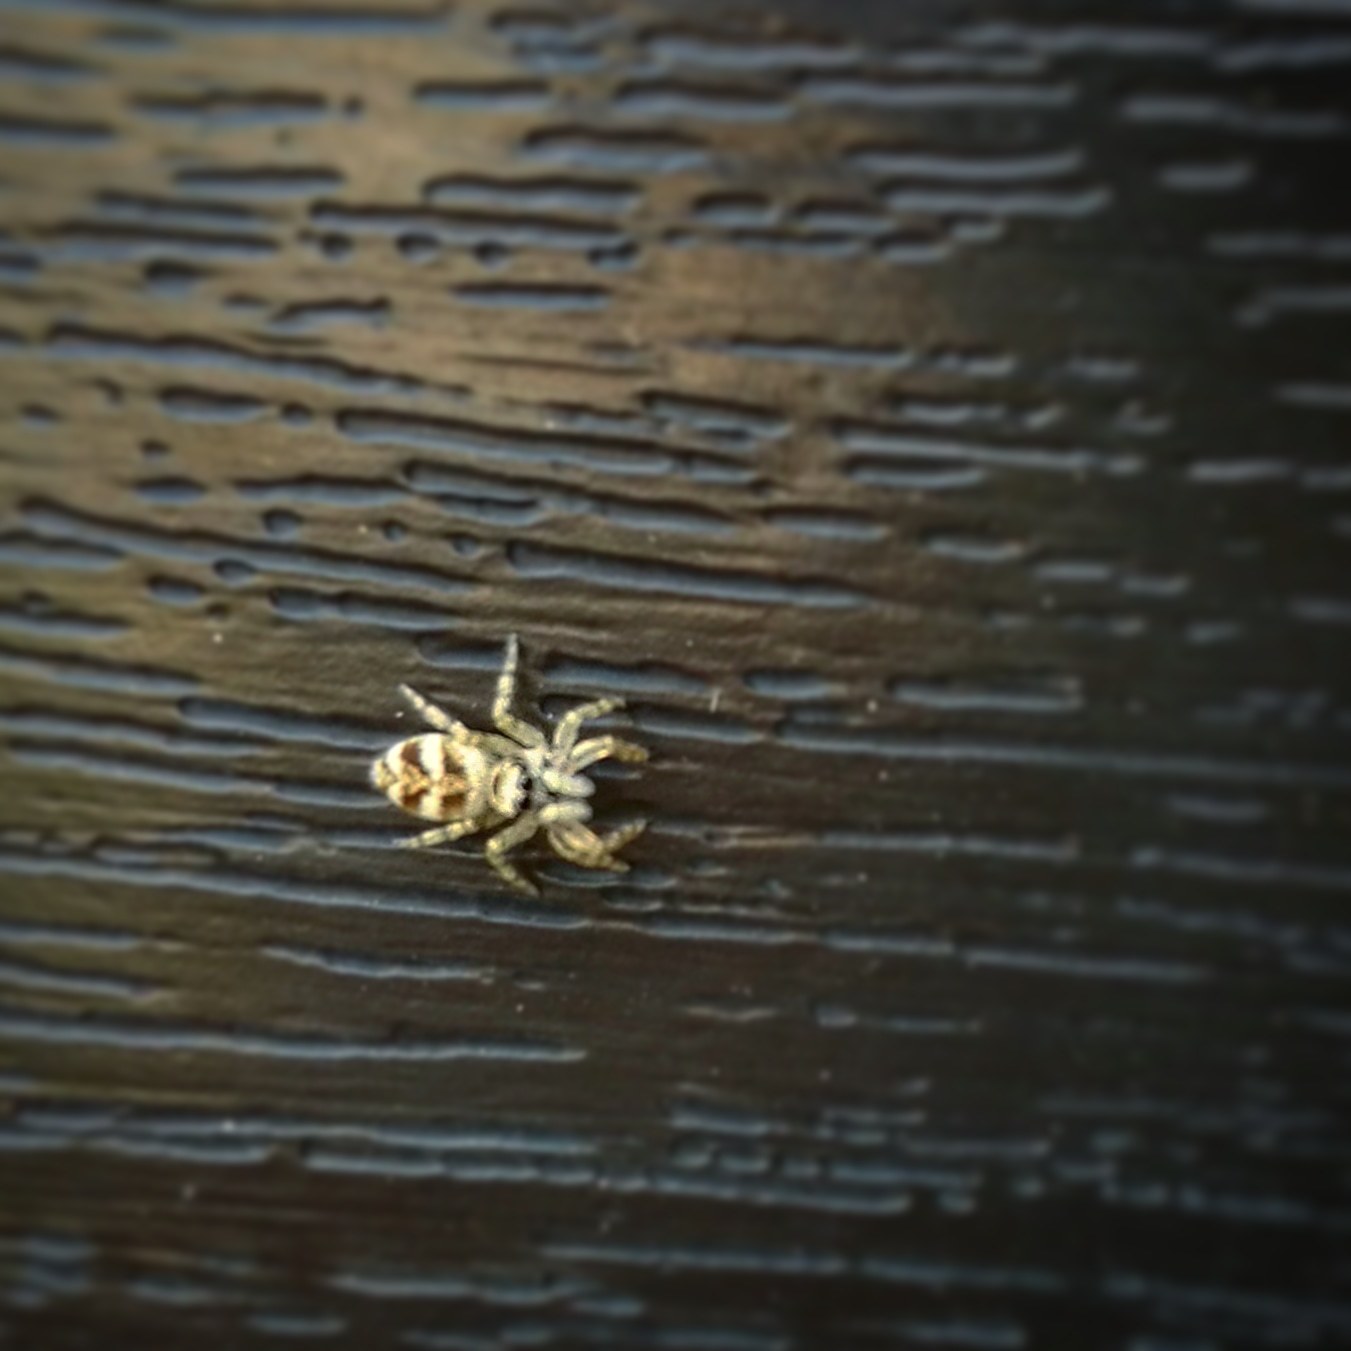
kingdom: Animalia
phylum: Arthropoda
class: Arachnida
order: Araneae
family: Salticidae
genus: Salticus
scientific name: Salticus scenicus
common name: Zebra jumper
